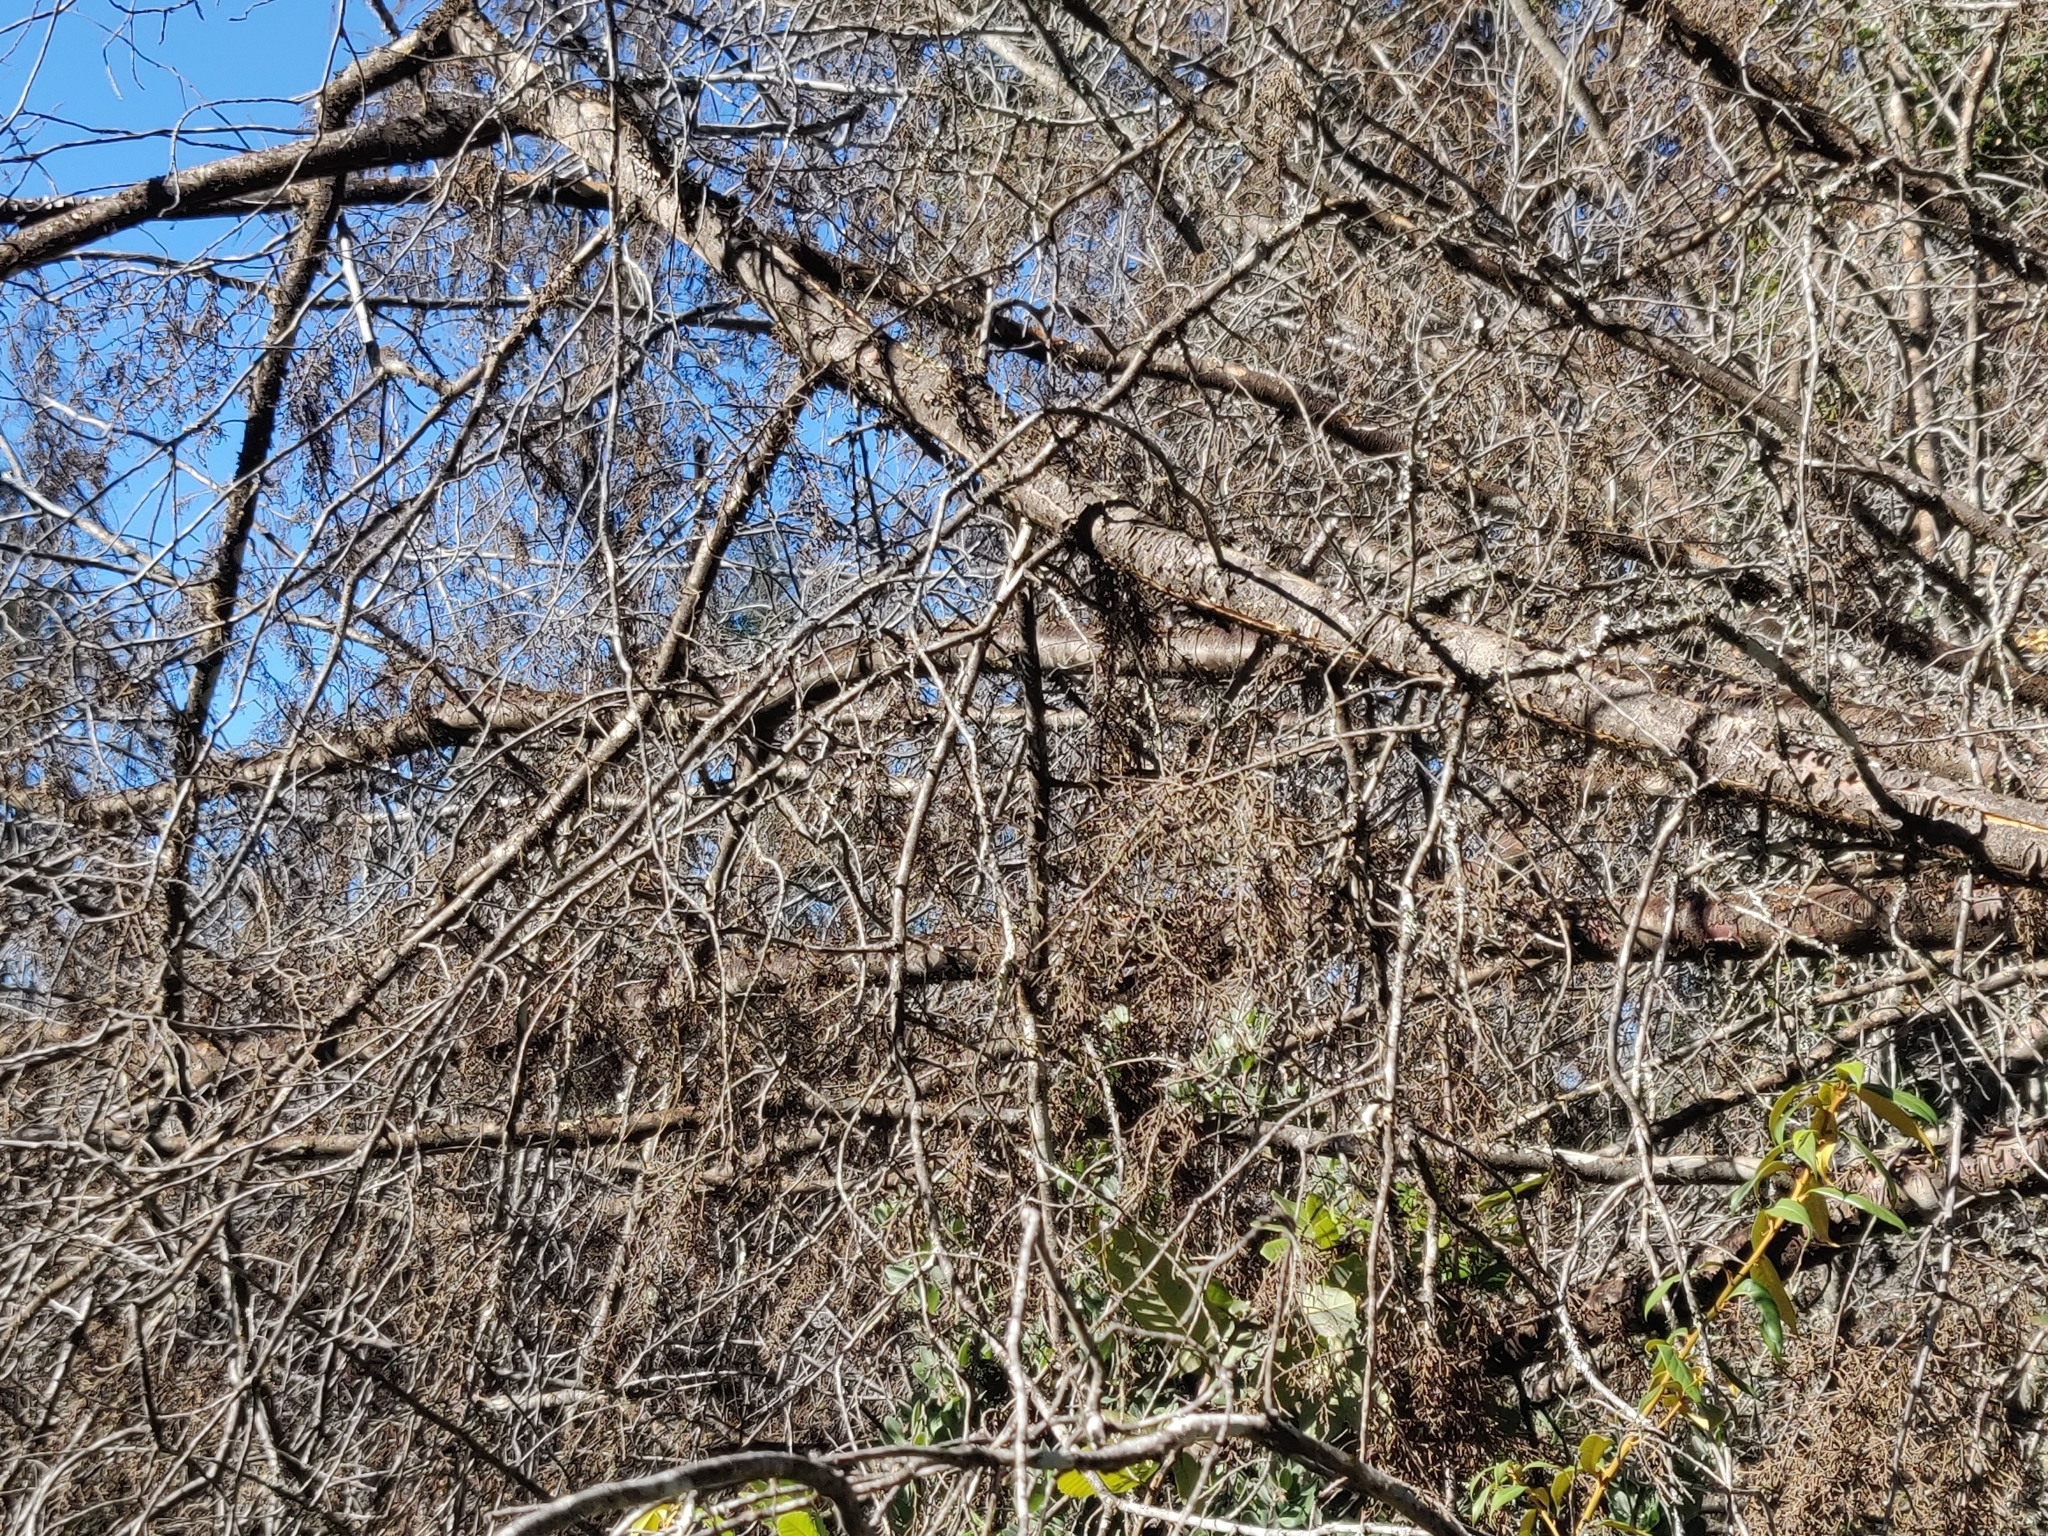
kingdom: Plantae
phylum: Tracheophyta
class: Pinopsida
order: Pinales
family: Cupressaceae
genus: Cupressus
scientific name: Cupressus goveniana
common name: Gowen cypress
